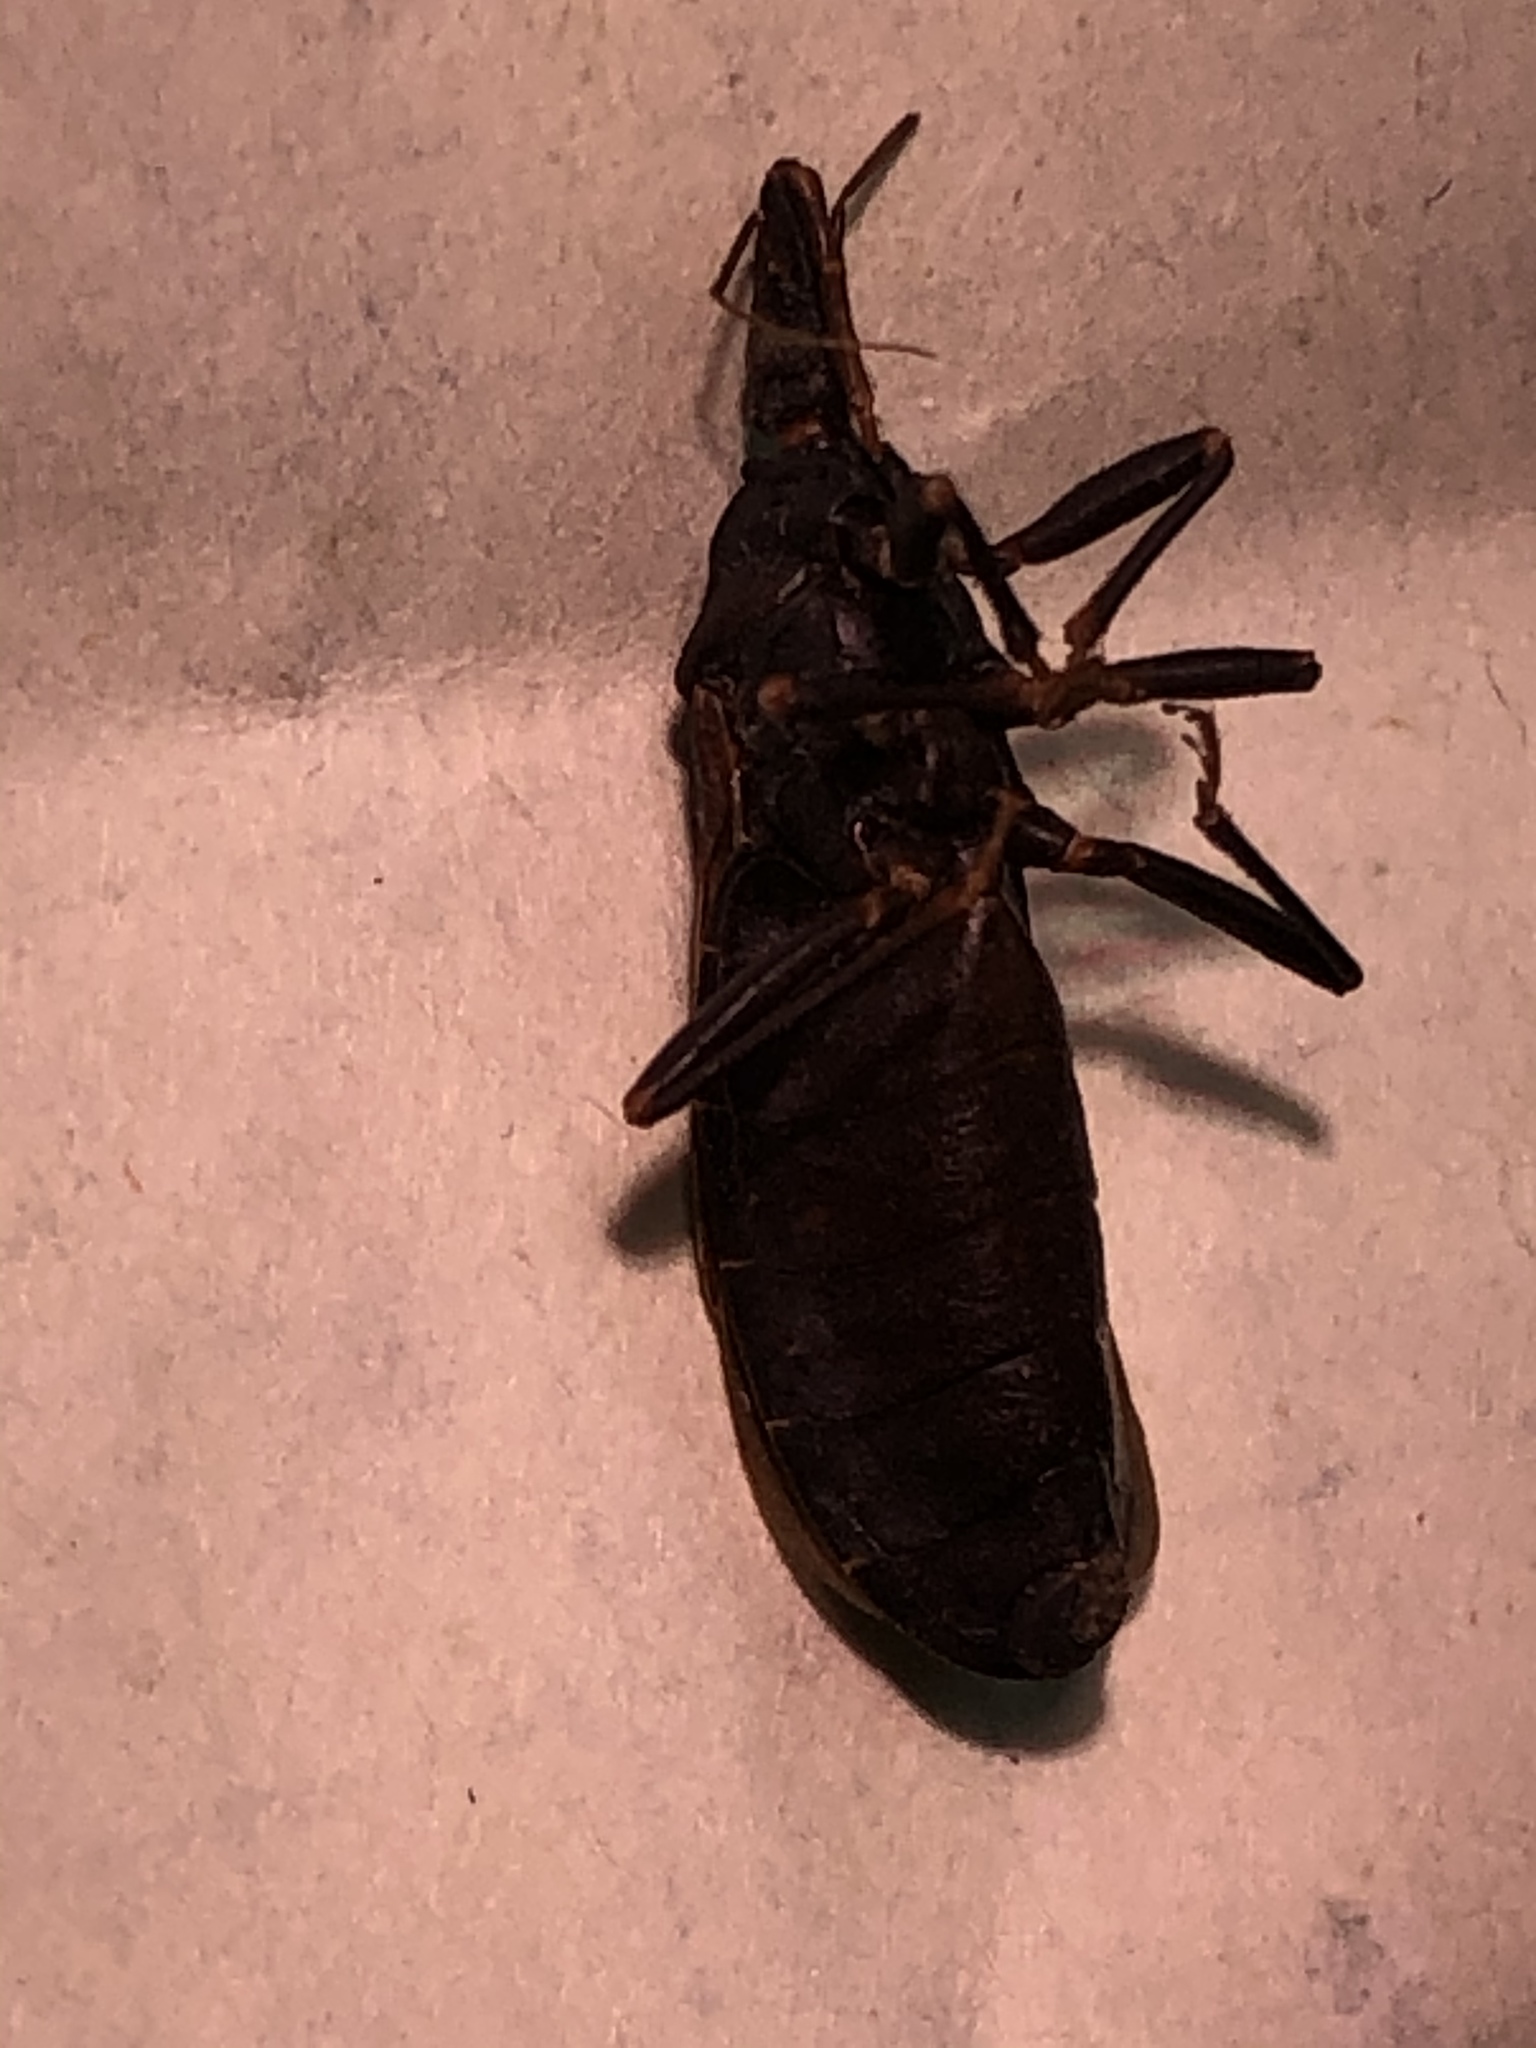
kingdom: Animalia
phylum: Arthropoda
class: Insecta
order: Hemiptera
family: Reduviidae
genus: Triatoma
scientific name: Triatoma protracta
